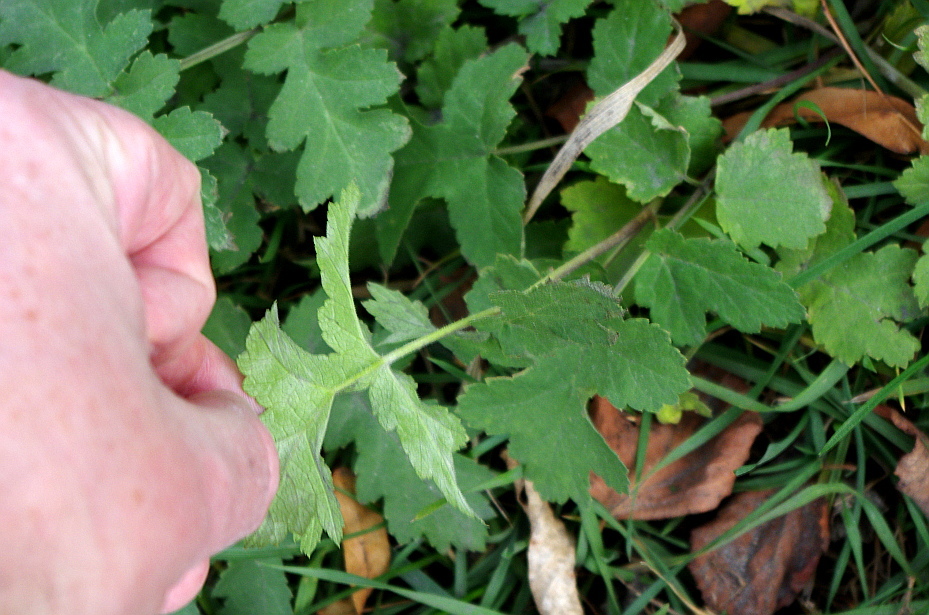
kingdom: Plantae
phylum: Tracheophyta
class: Magnoliopsida
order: Apiales
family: Apiaceae
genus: Heracleum
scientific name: Heracleum sphondylium
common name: Hogweed
